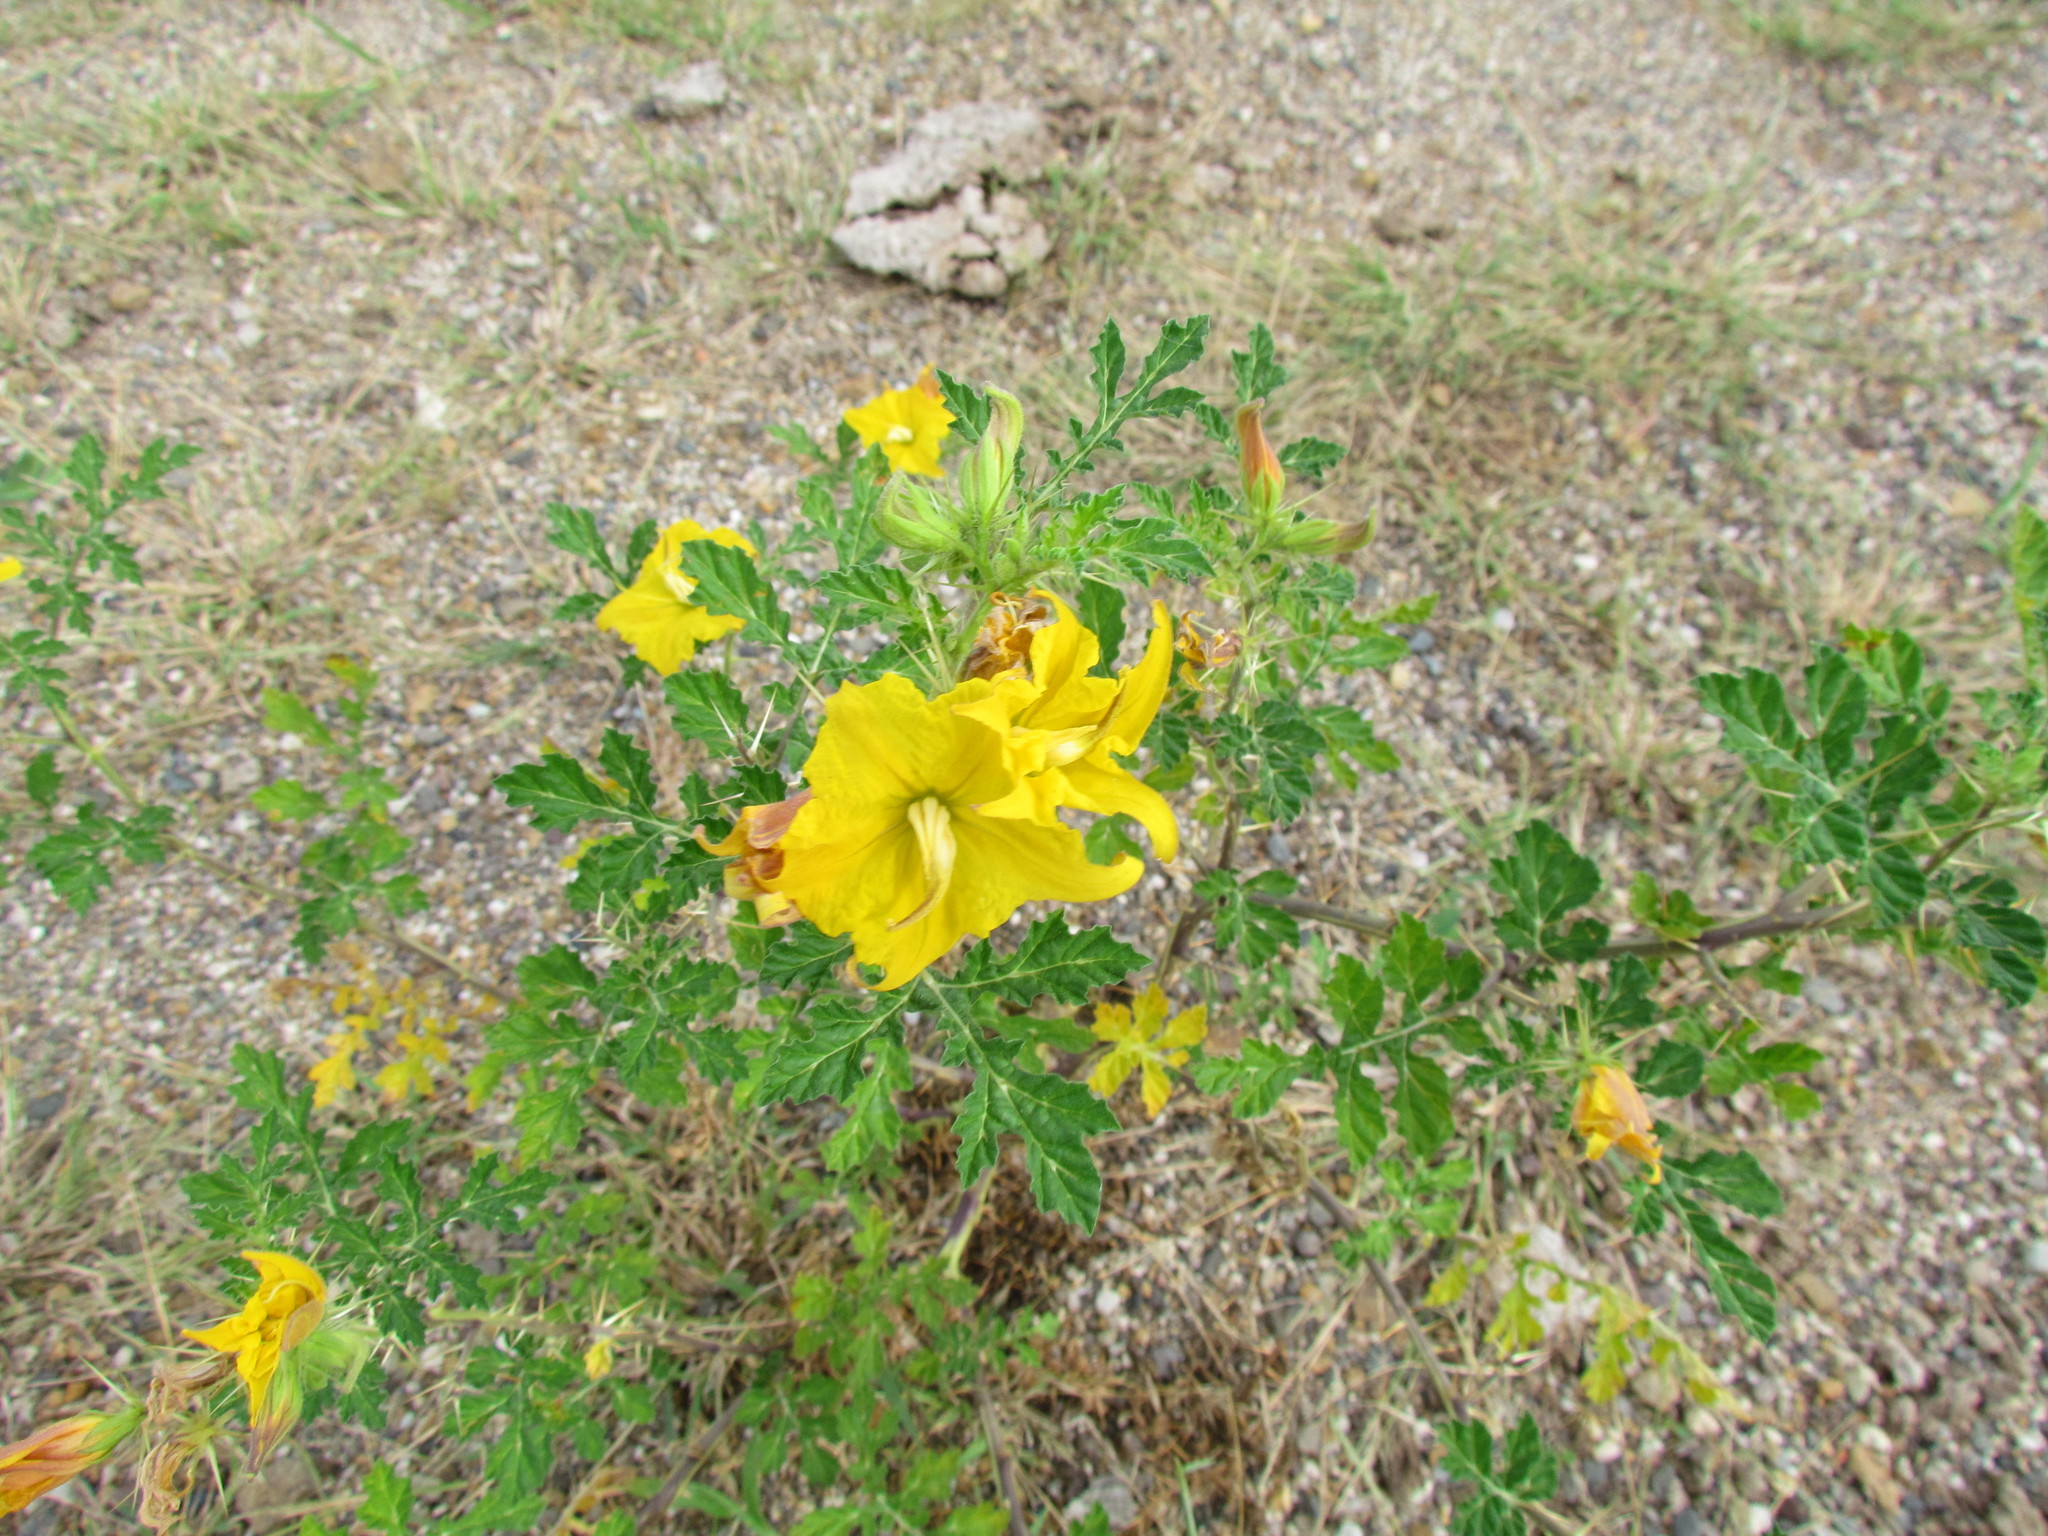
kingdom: Plantae
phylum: Tracheophyta
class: Magnoliopsida
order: Solanales
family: Solanaceae
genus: Solanum
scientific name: Solanum angustifolium
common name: Buffalobur nightshade
